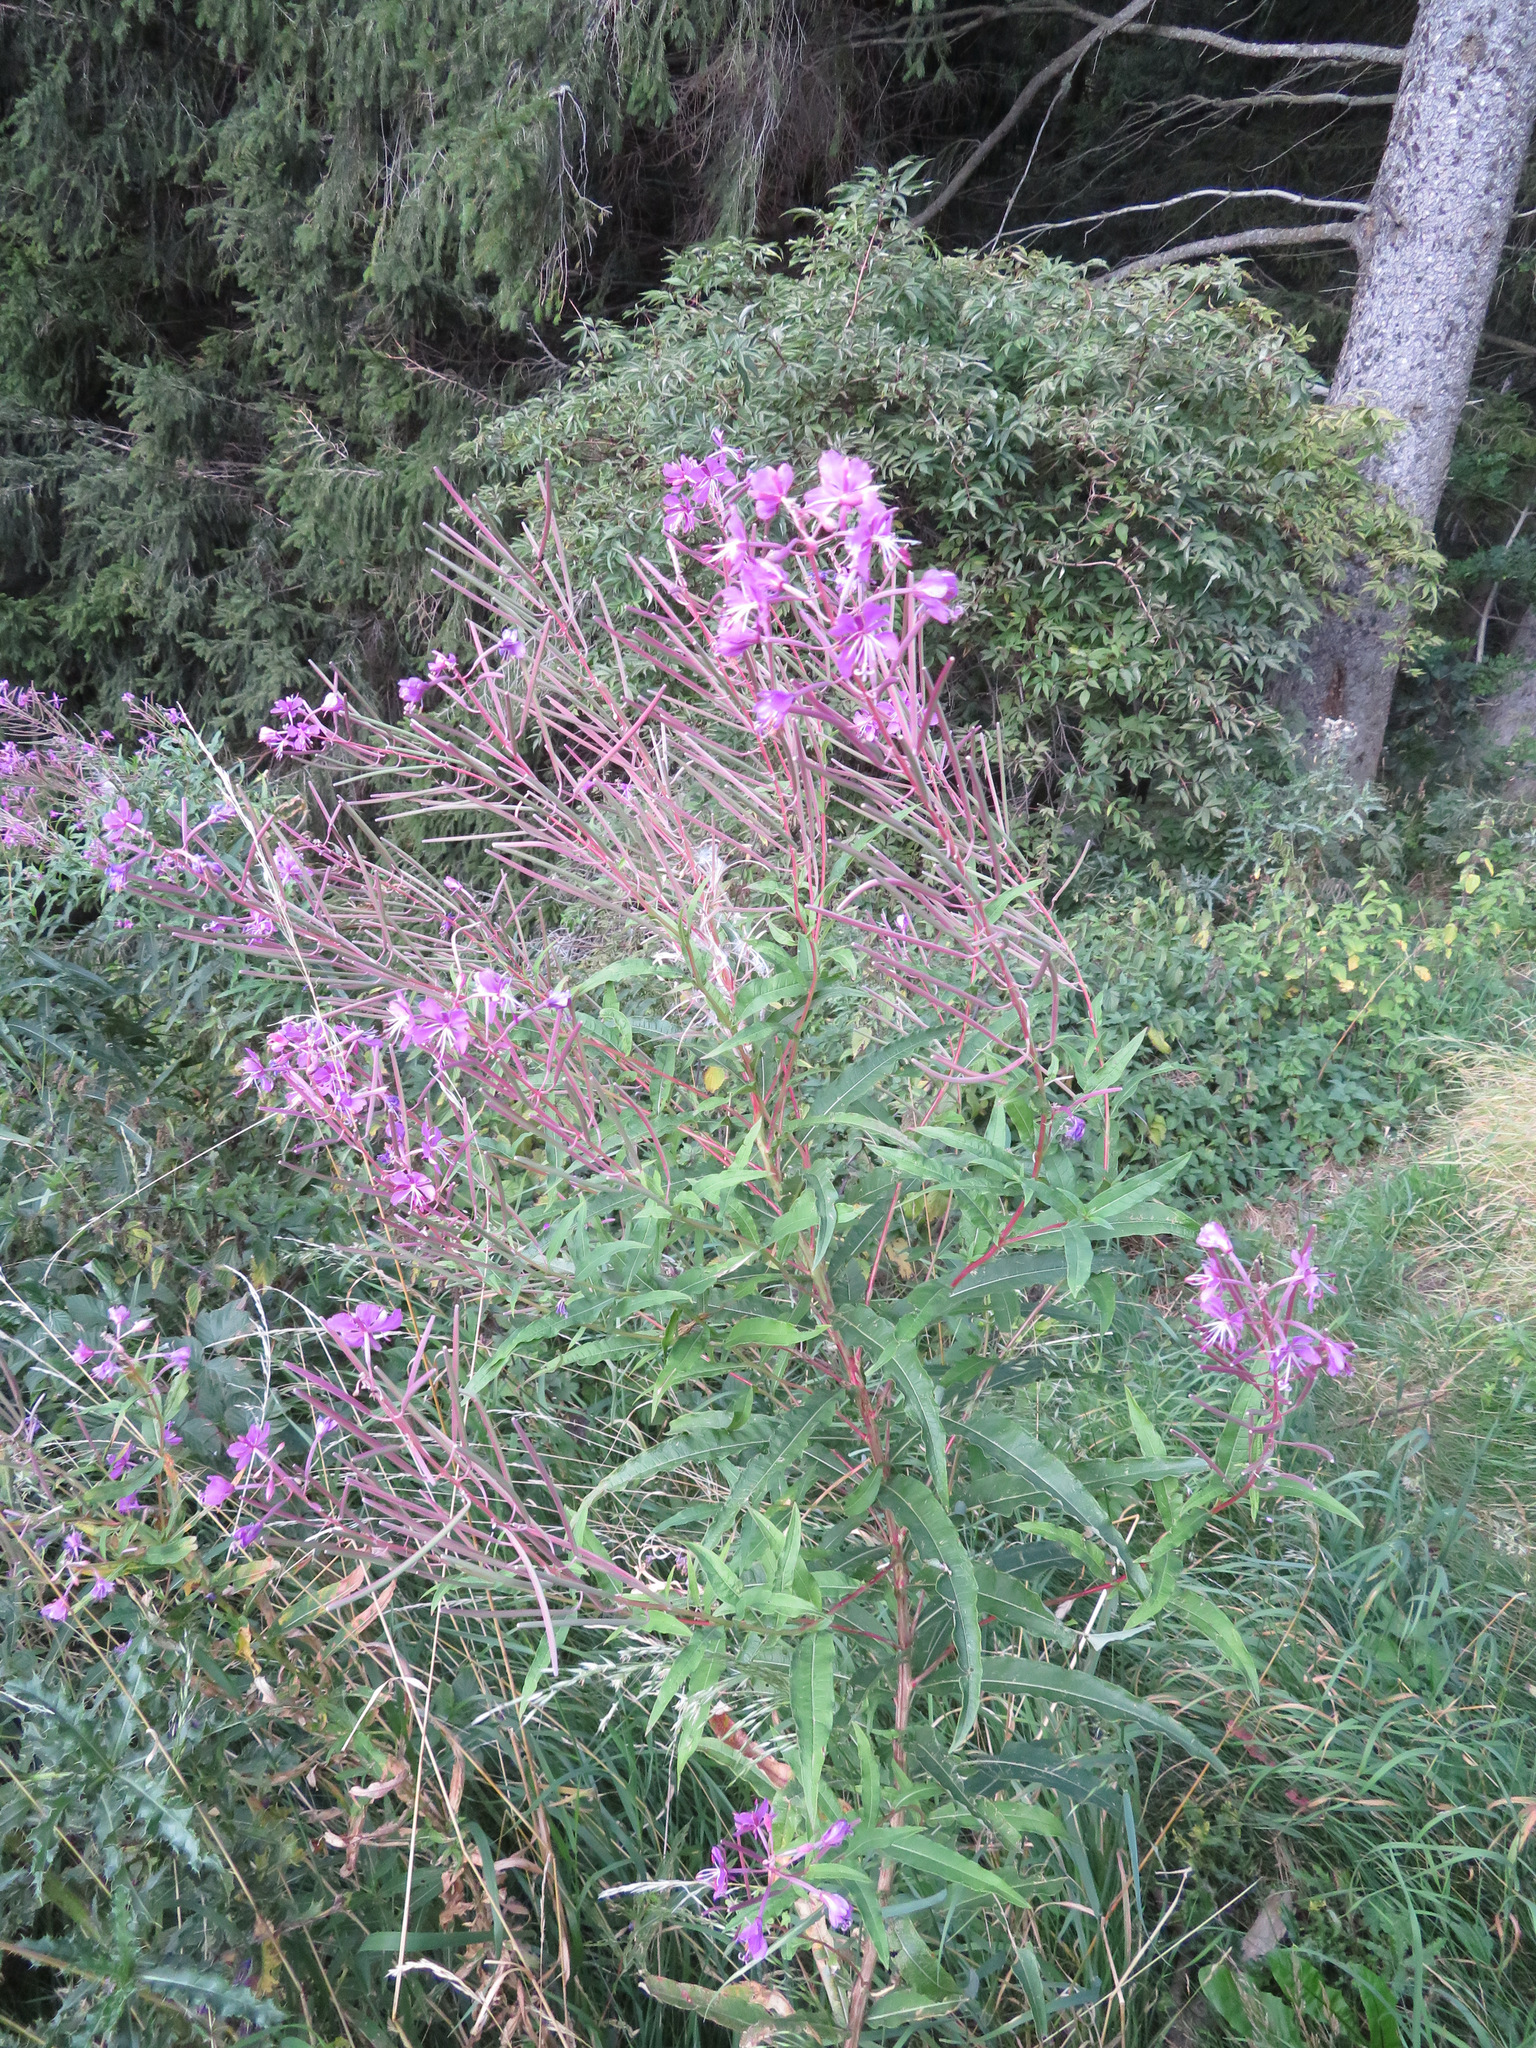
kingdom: Plantae
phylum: Tracheophyta
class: Magnoliopsida
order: Myrtales
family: Onagraceae
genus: Chamaenerion
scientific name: Chamaenerion angustifolium
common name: Fireweed
